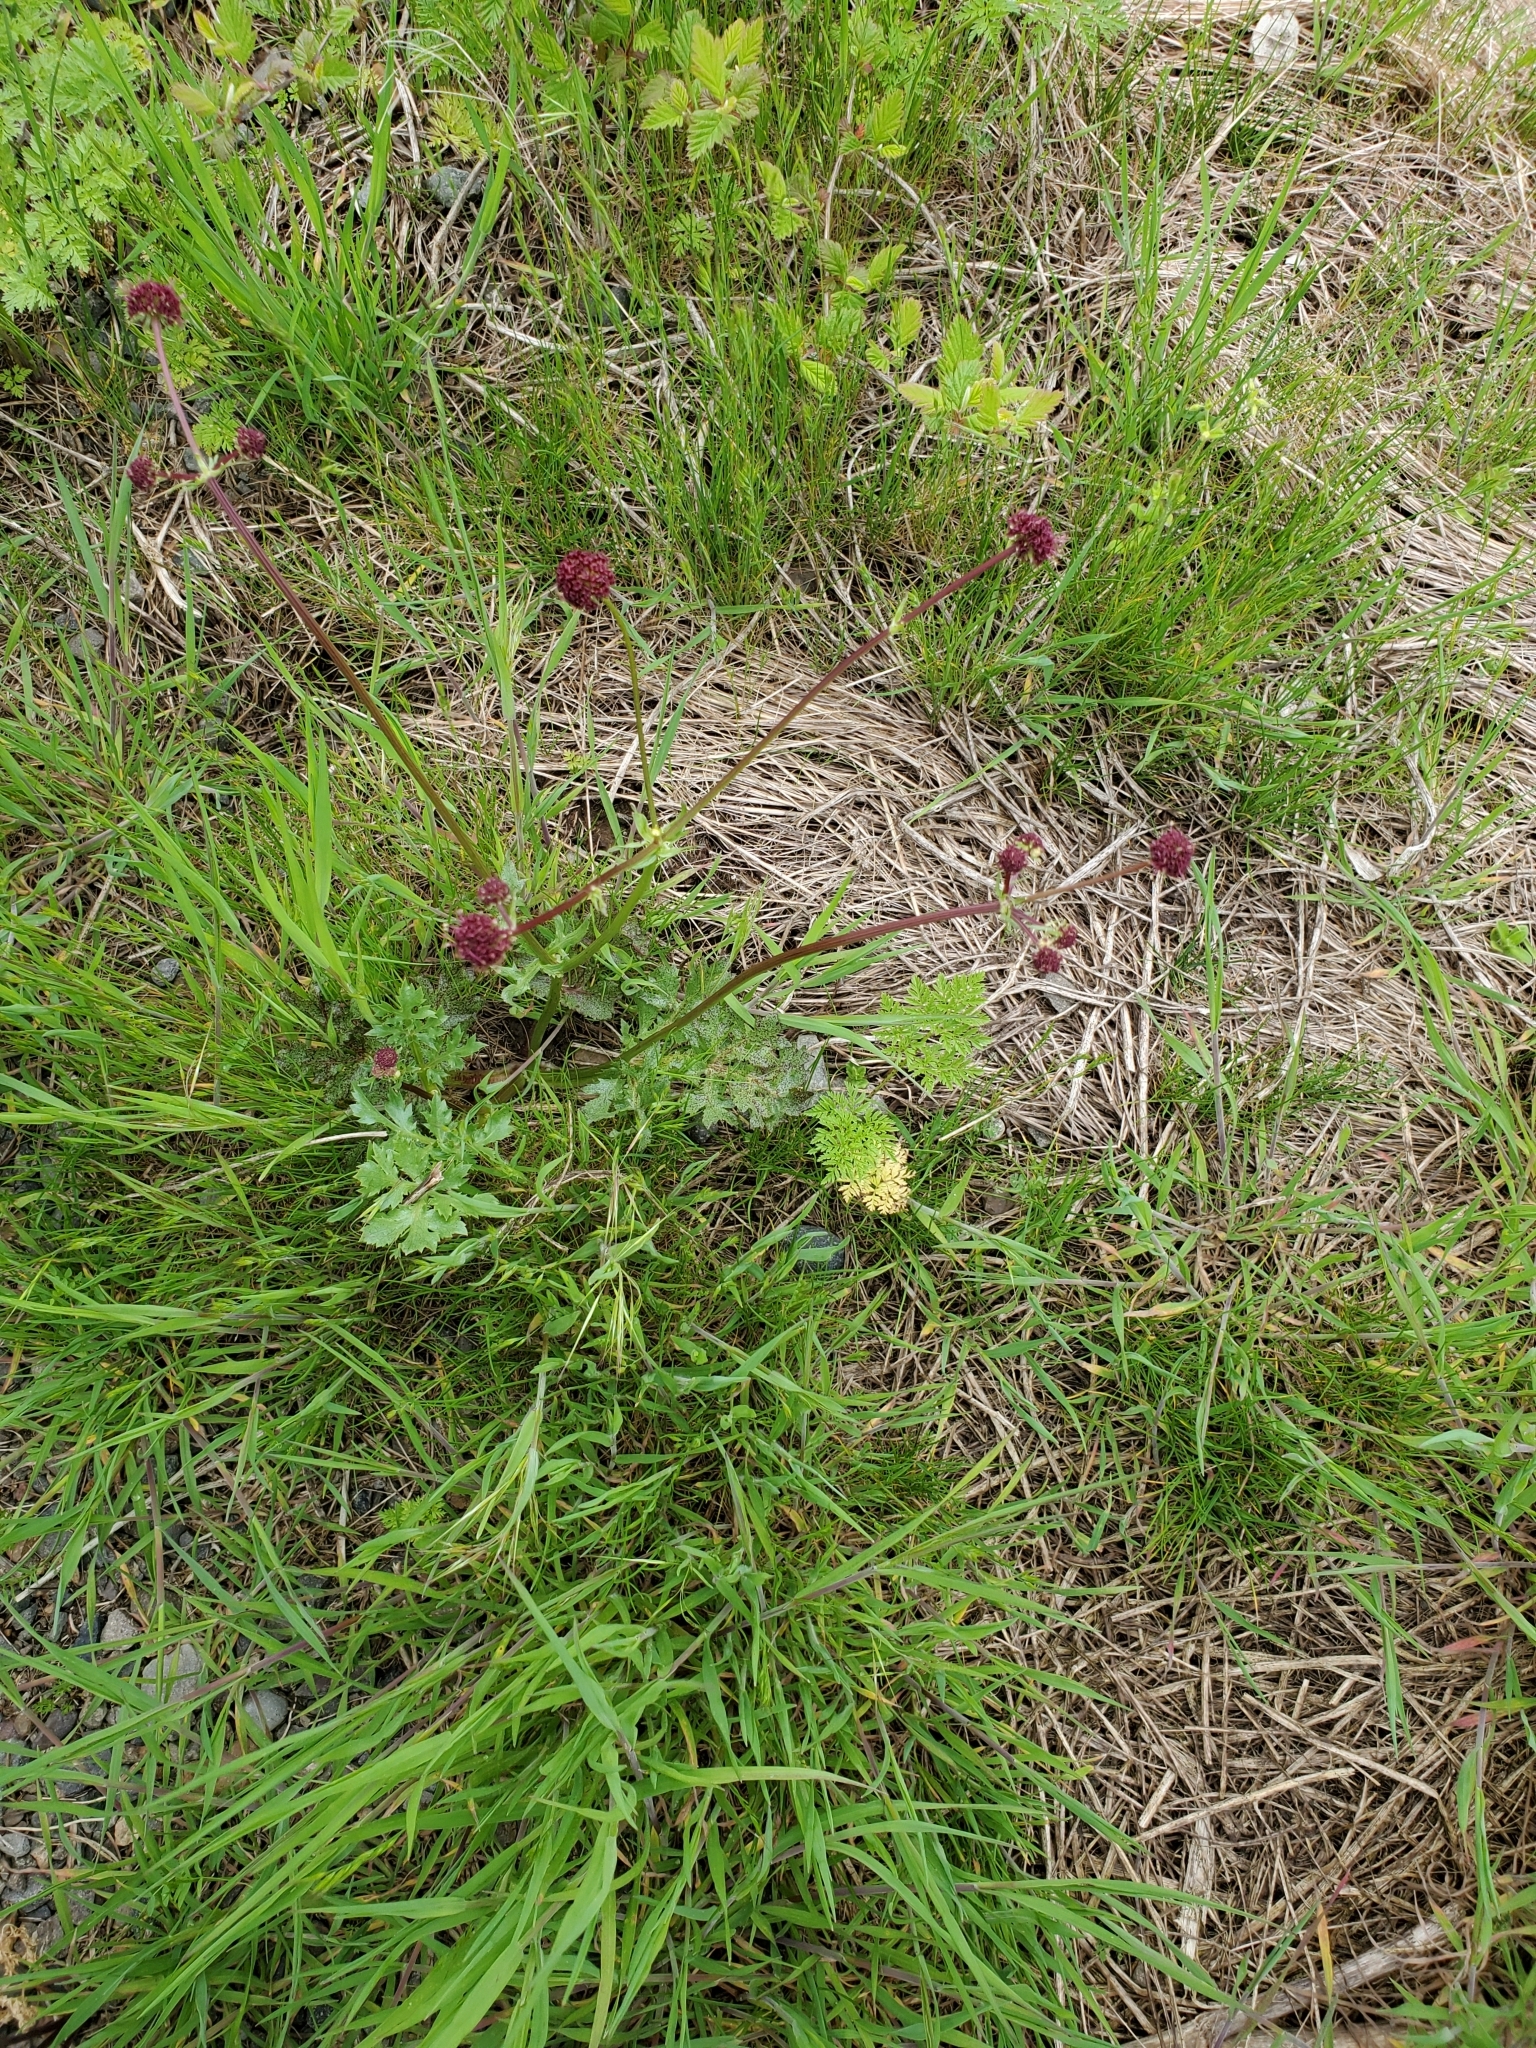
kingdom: Plantae
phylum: Tracheophyta
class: Magnoliopsida
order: Apiales
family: Apiaceae
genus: Sanicula
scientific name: Sanicula bipinnatifida
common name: Shoe-buttons
